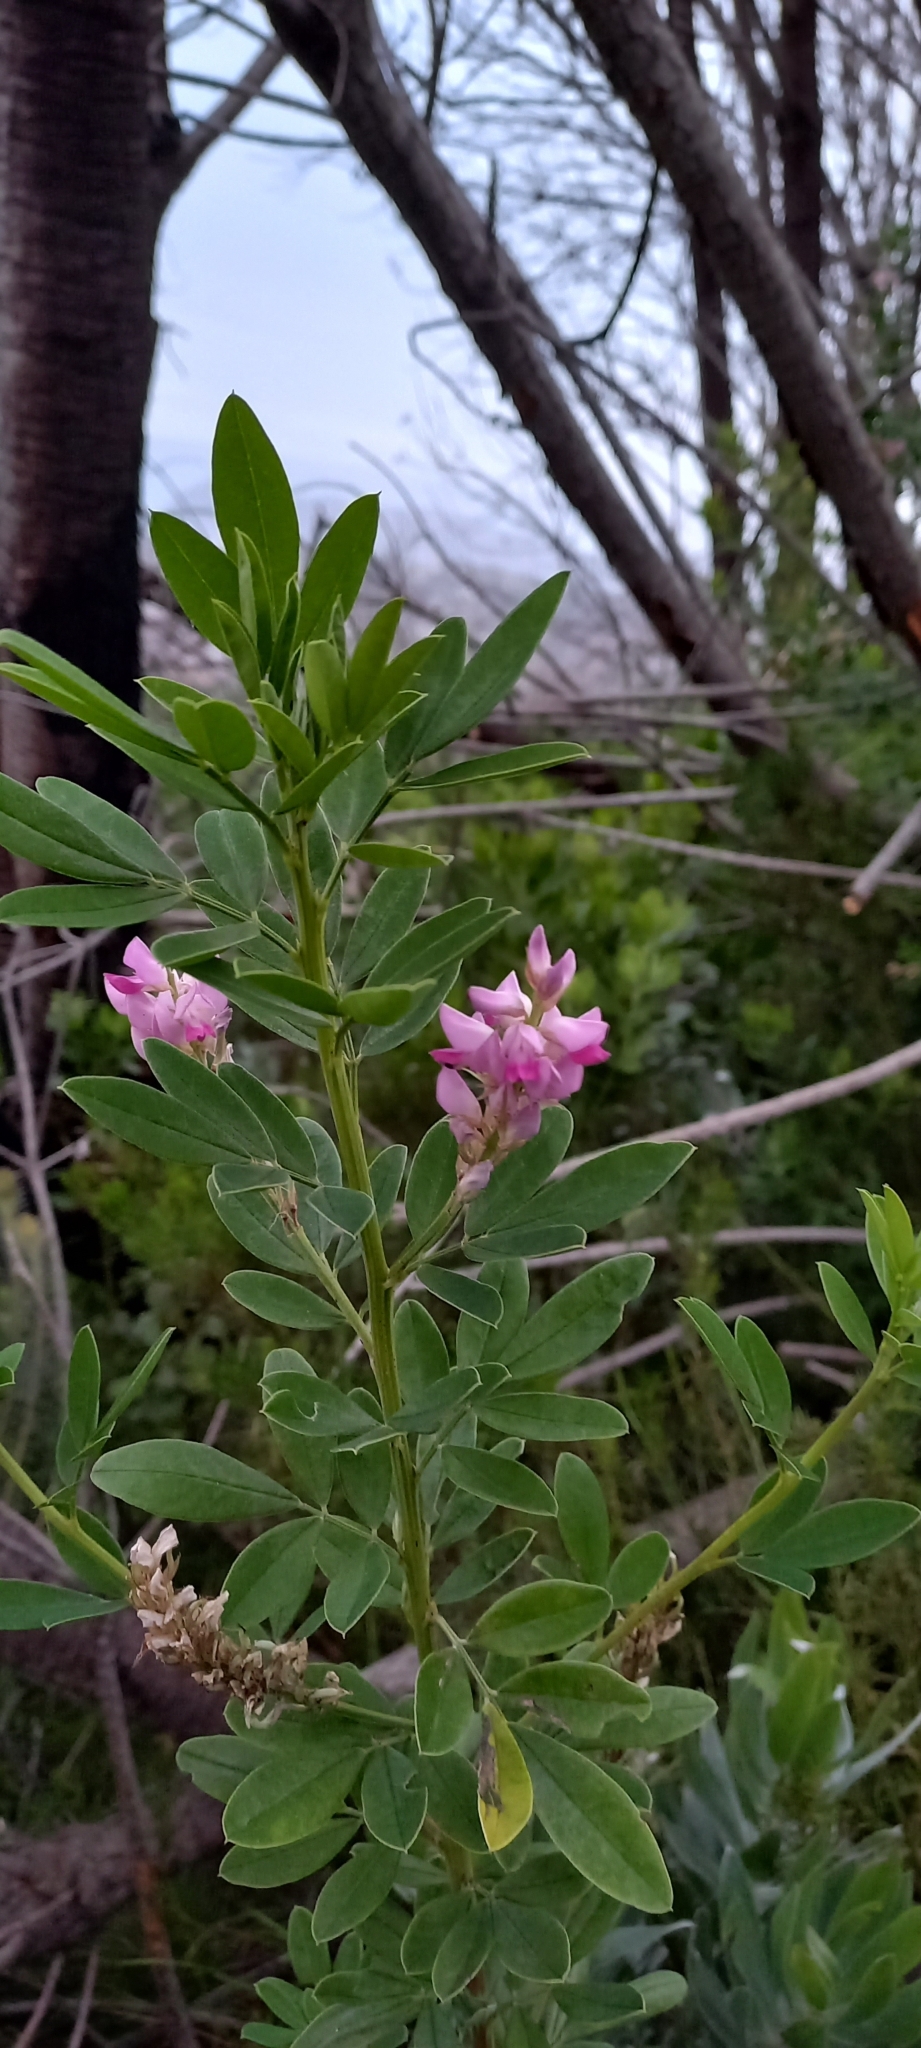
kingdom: Plantae
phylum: Tracheophyta
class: Magnoliopsida
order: Fabales
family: Fabaceae
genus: Indigofera
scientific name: Indigofera cytisoides
